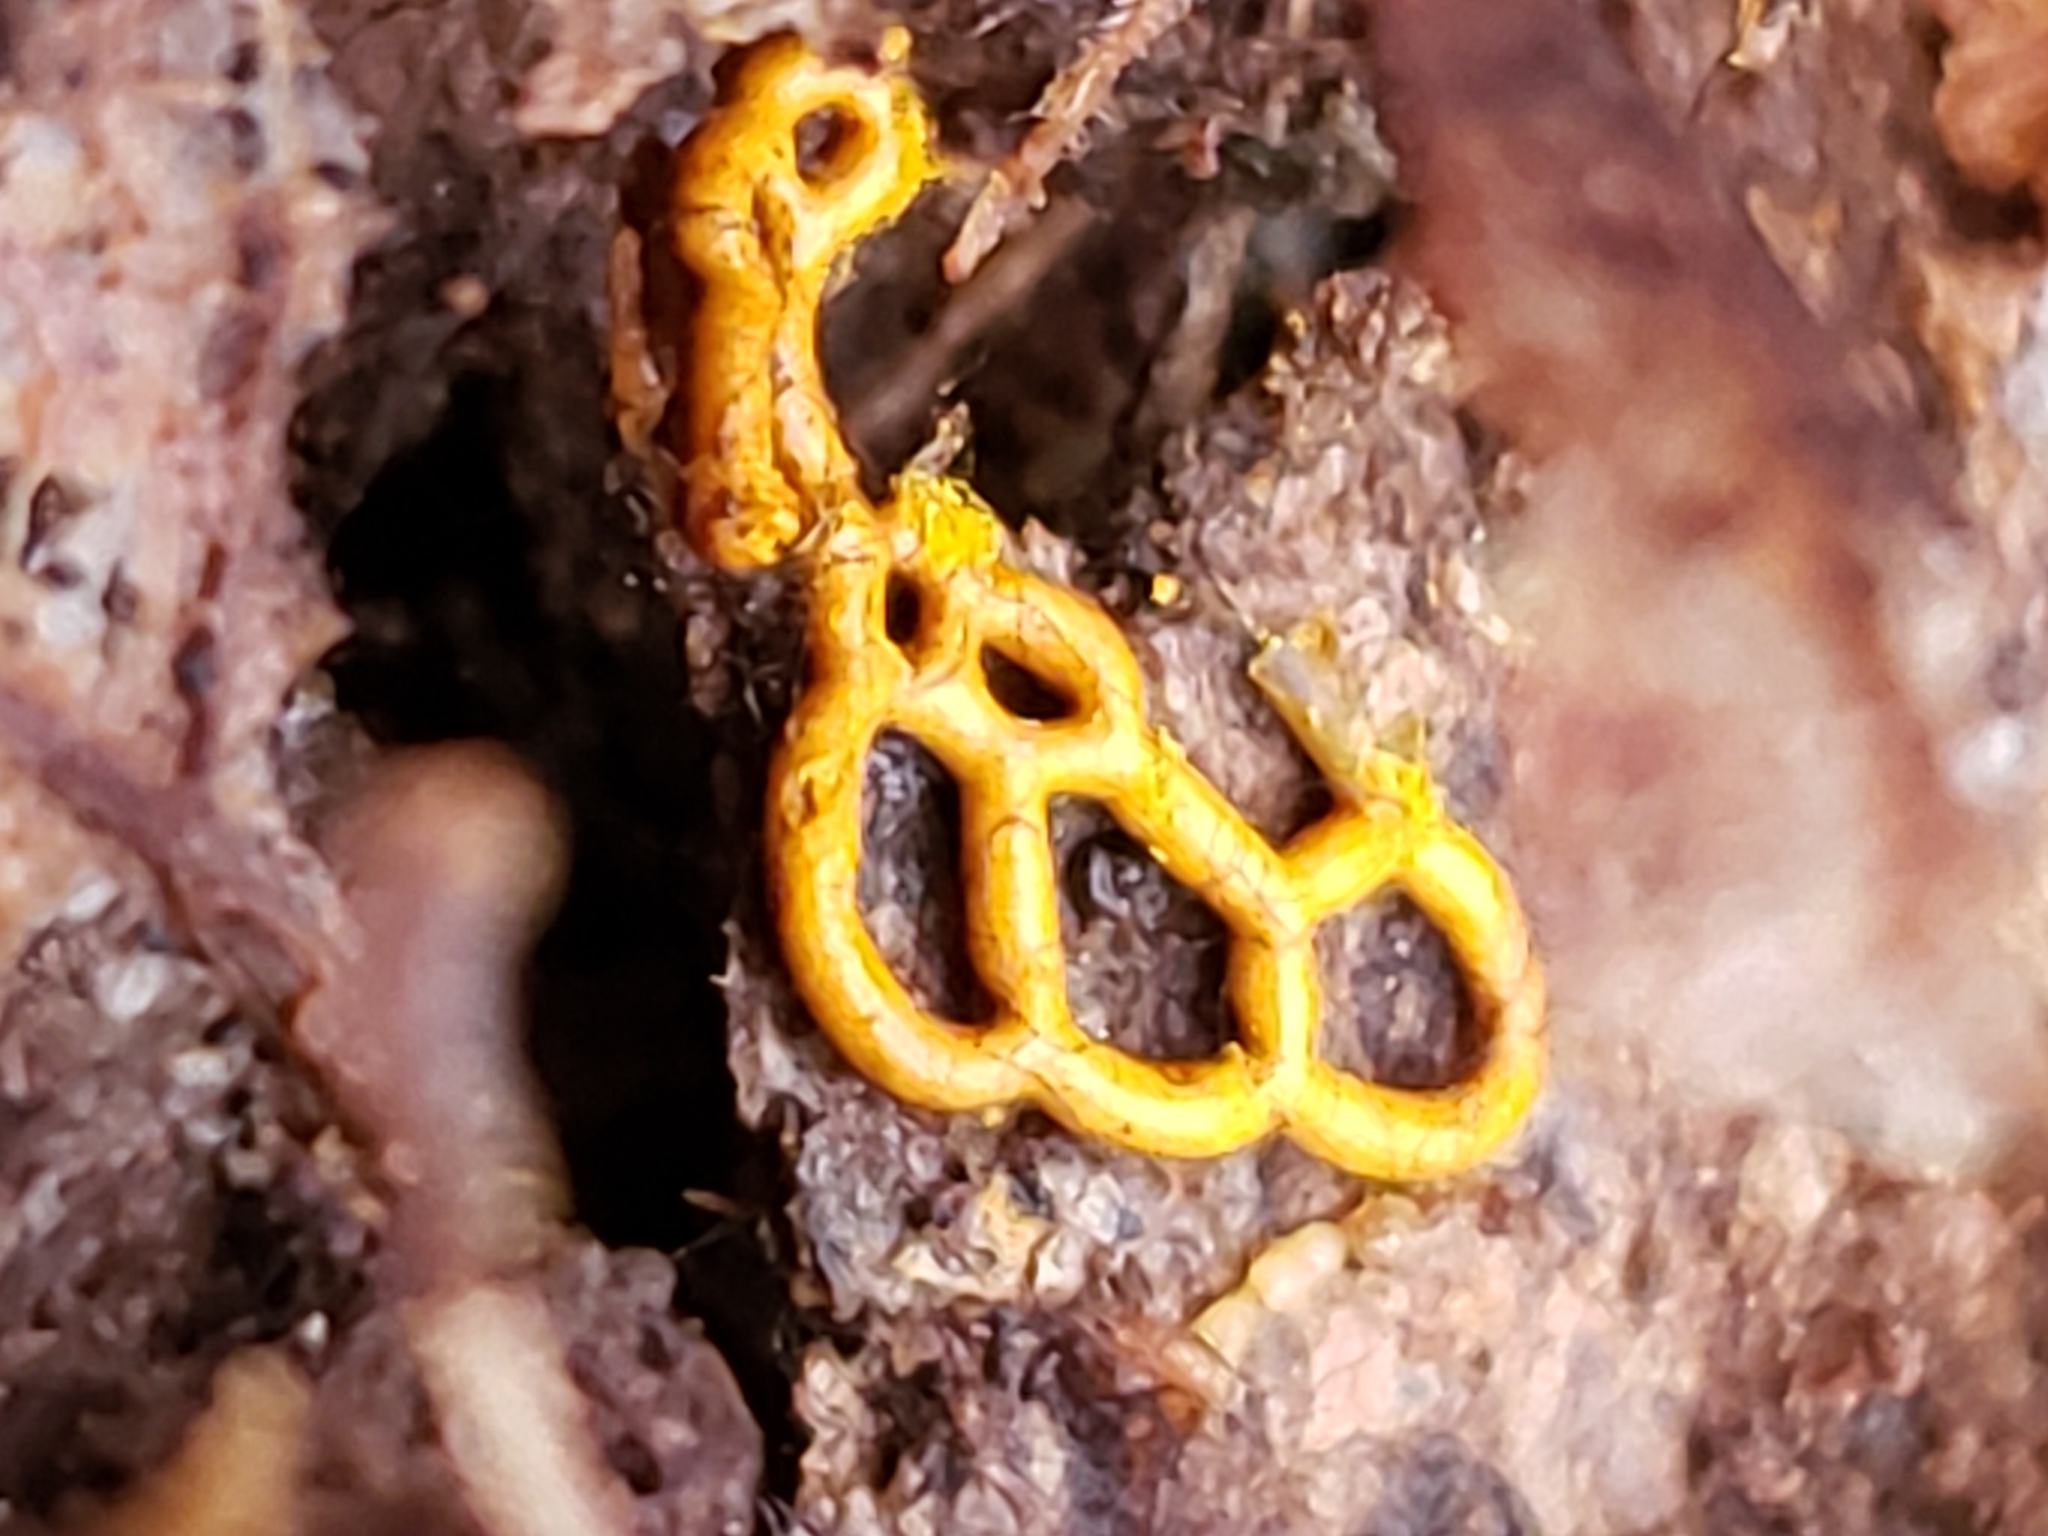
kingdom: Protozoa
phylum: Mycetozoa
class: Myxomycetes
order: Trichiales
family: Arcyriaceae
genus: Hemitrichia
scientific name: Hemitrichia serpula
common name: Pretzel slime mold
